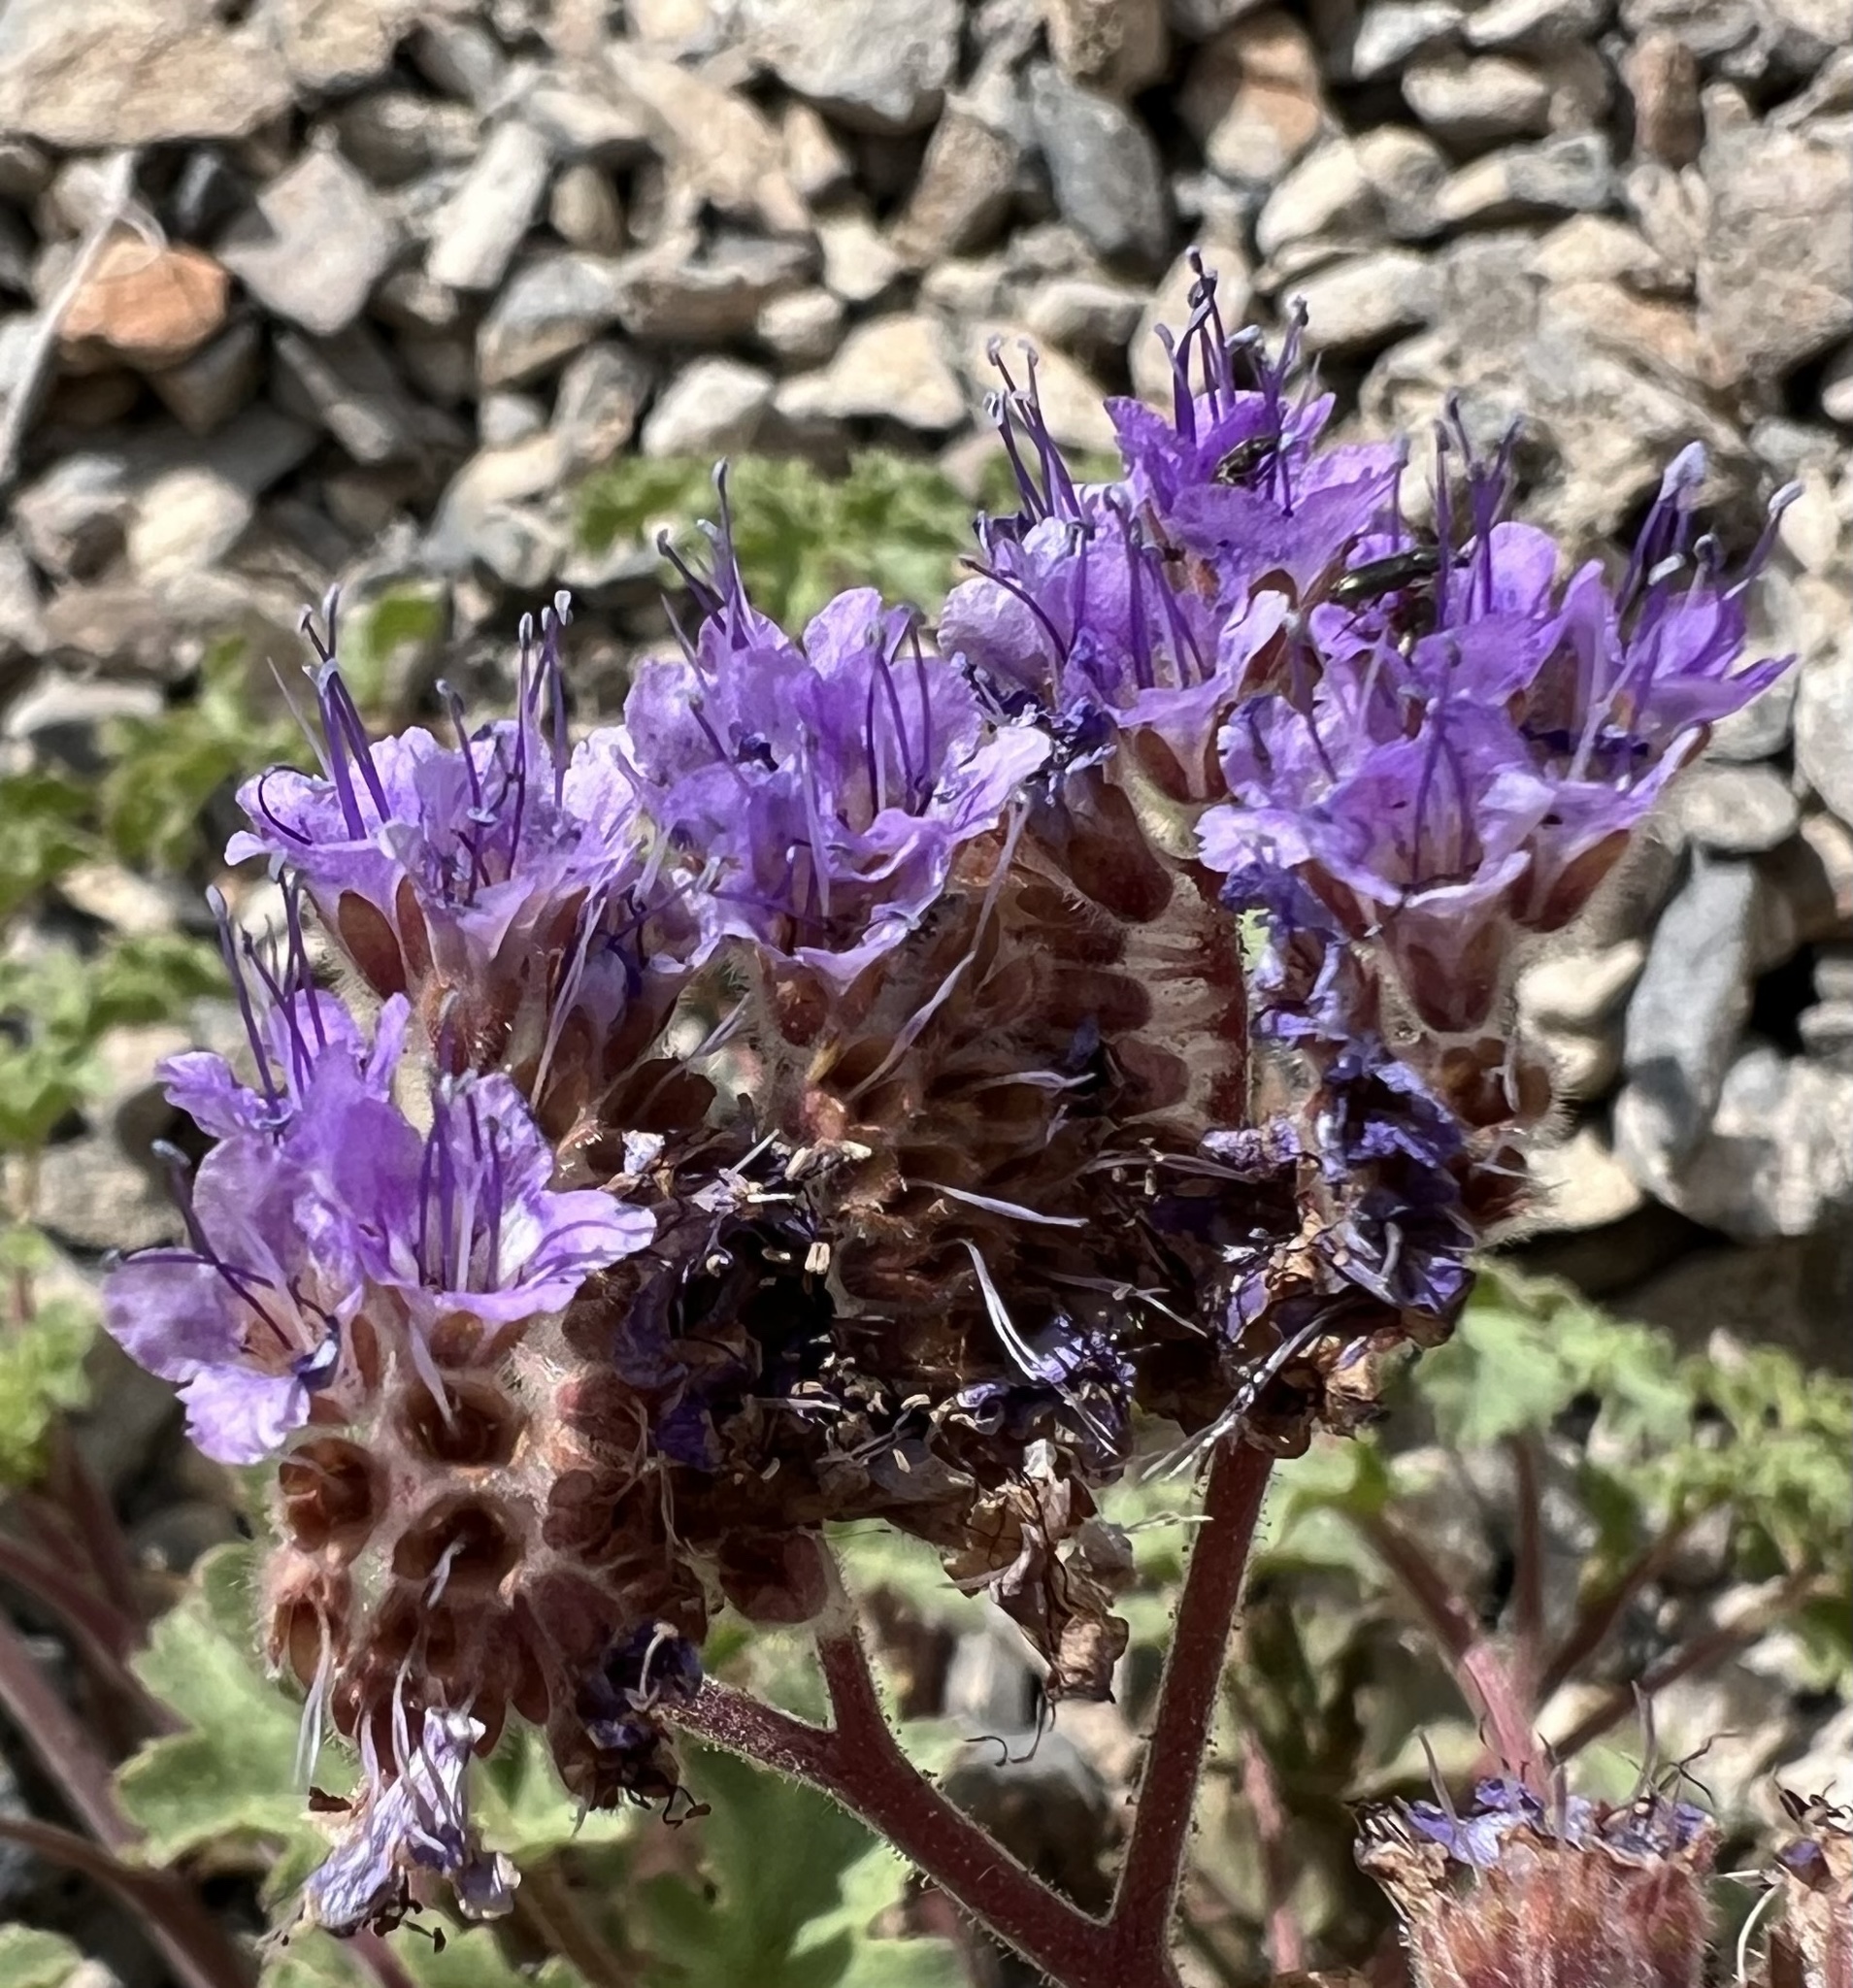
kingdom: Plantae
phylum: Tracheophyta
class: Magnoliopsida
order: Boraginales
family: Hydrophyllaceae
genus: Phacelia
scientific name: Phacelia pedicellata
